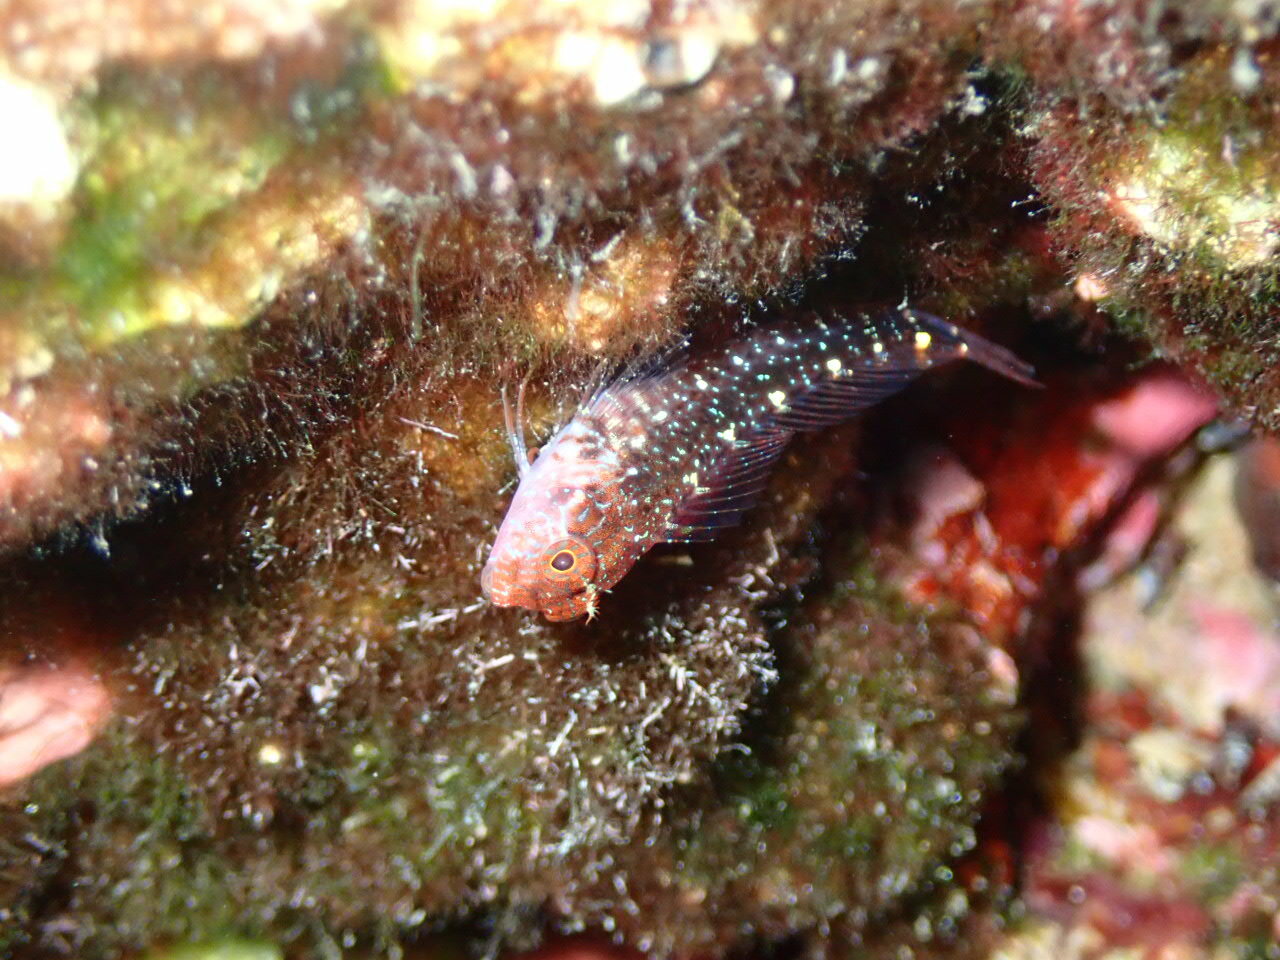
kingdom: Animalia
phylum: Chordata
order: Perciformes
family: Blenniidae
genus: Parablennius
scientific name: Parablennius zvonimiri
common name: Red blenny
